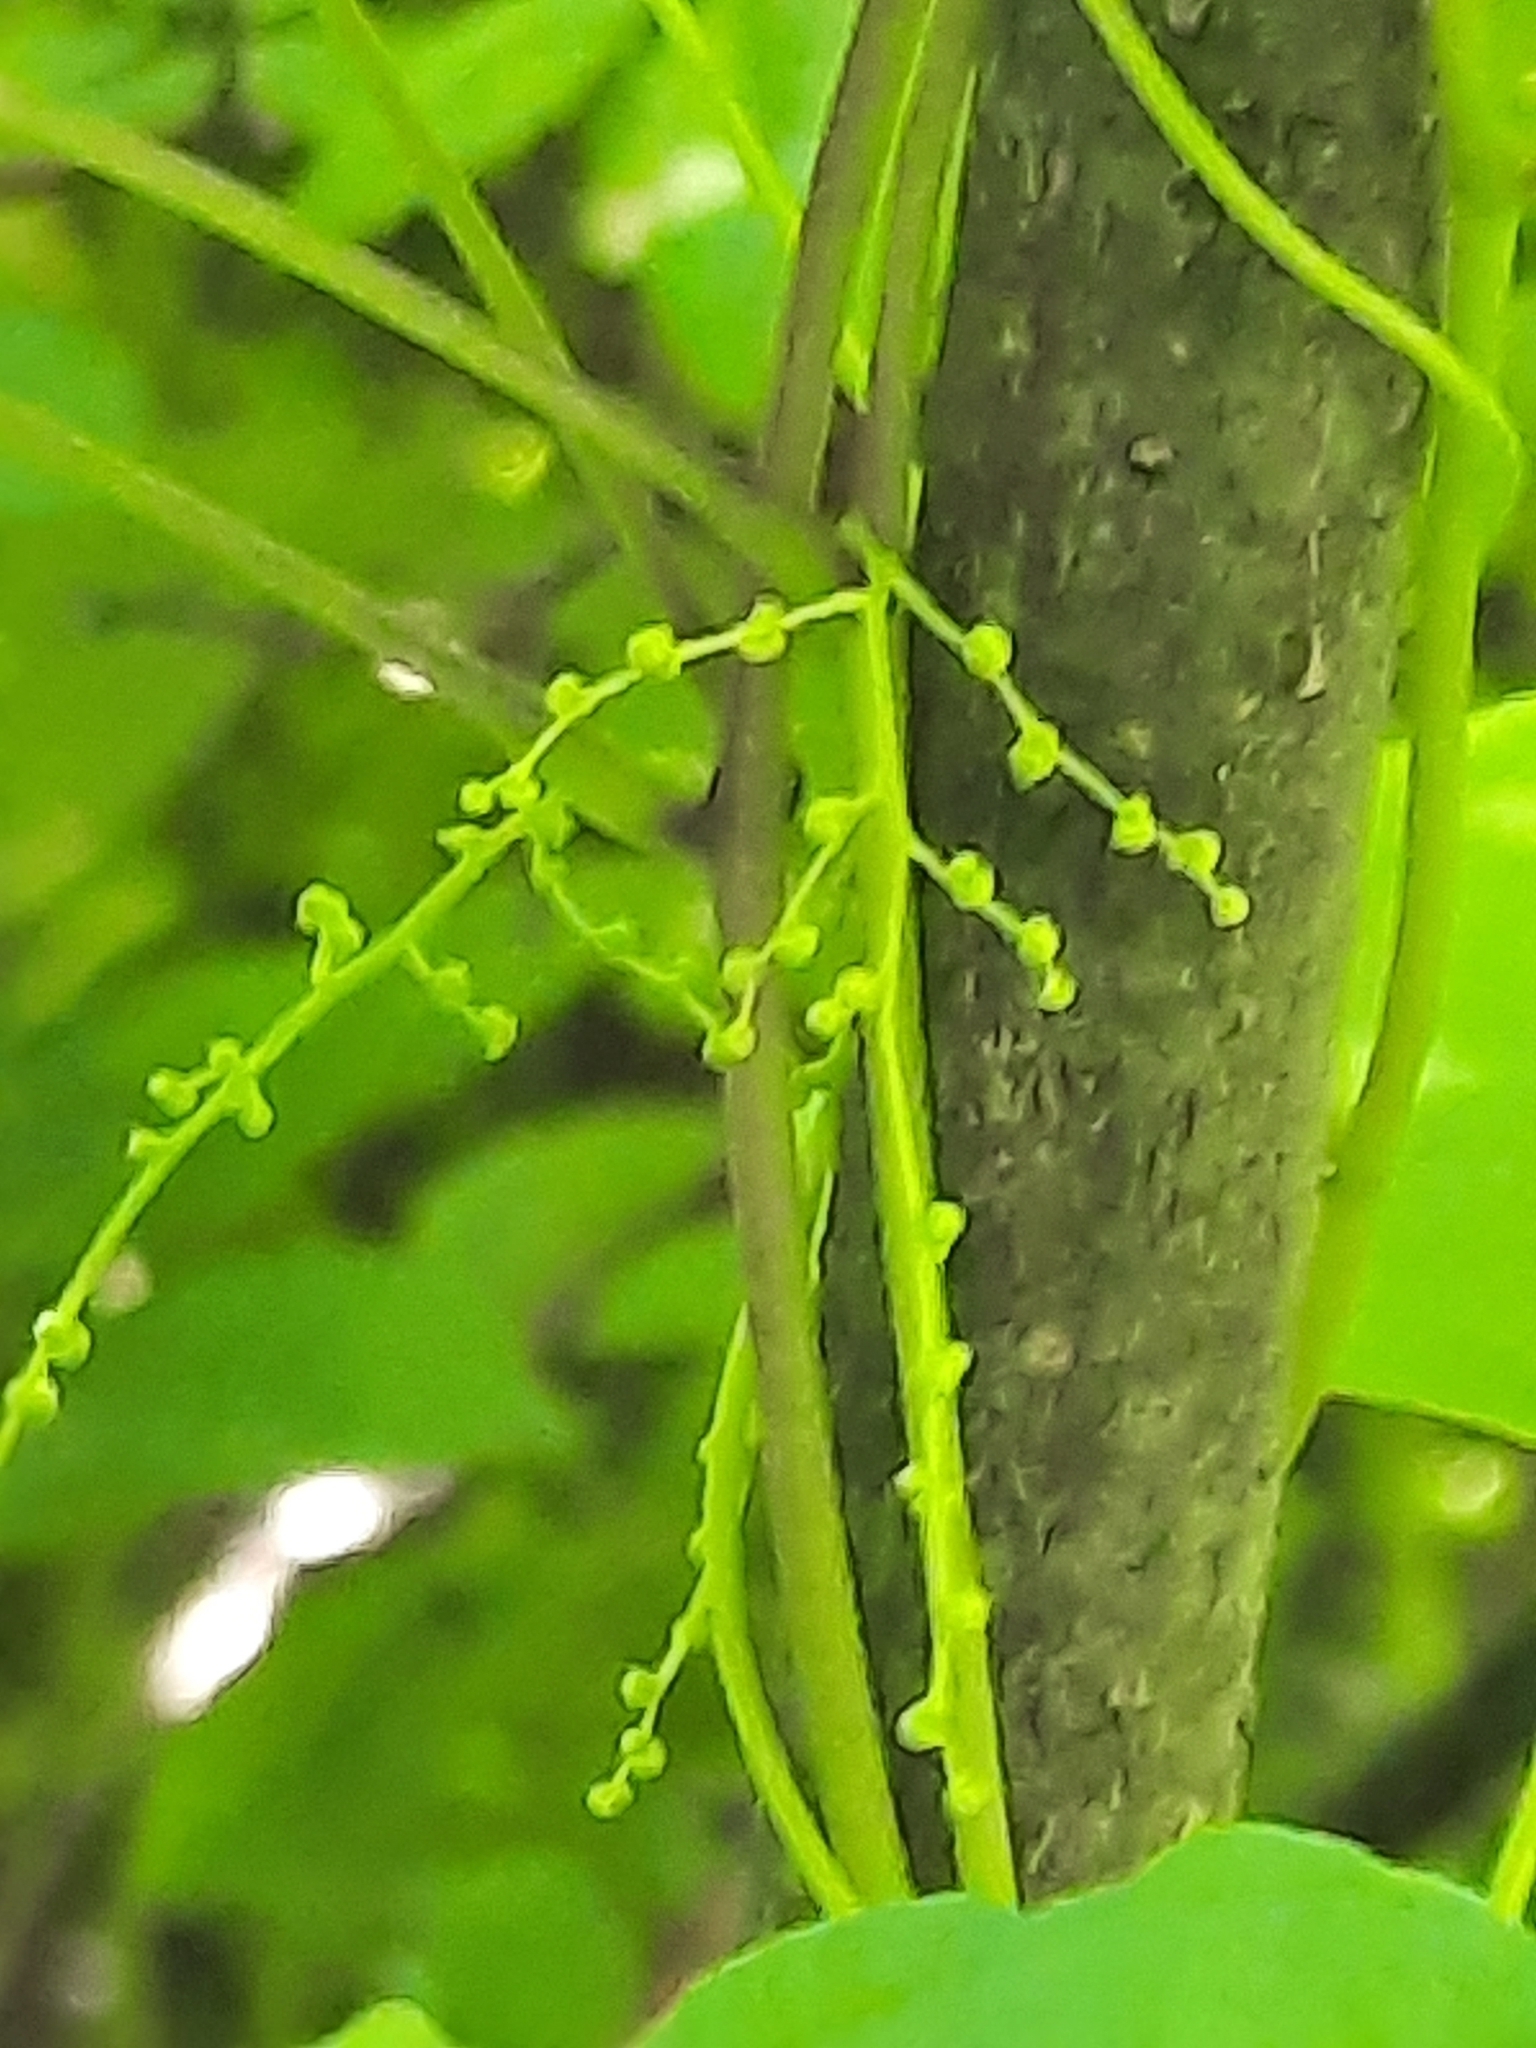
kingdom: Plantae
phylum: Tracheophyta
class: Liliopsida
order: Dioscoreales
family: Dioscoreaceae
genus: Dioscorea
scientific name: Dioscorea villosa
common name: Wild yam
